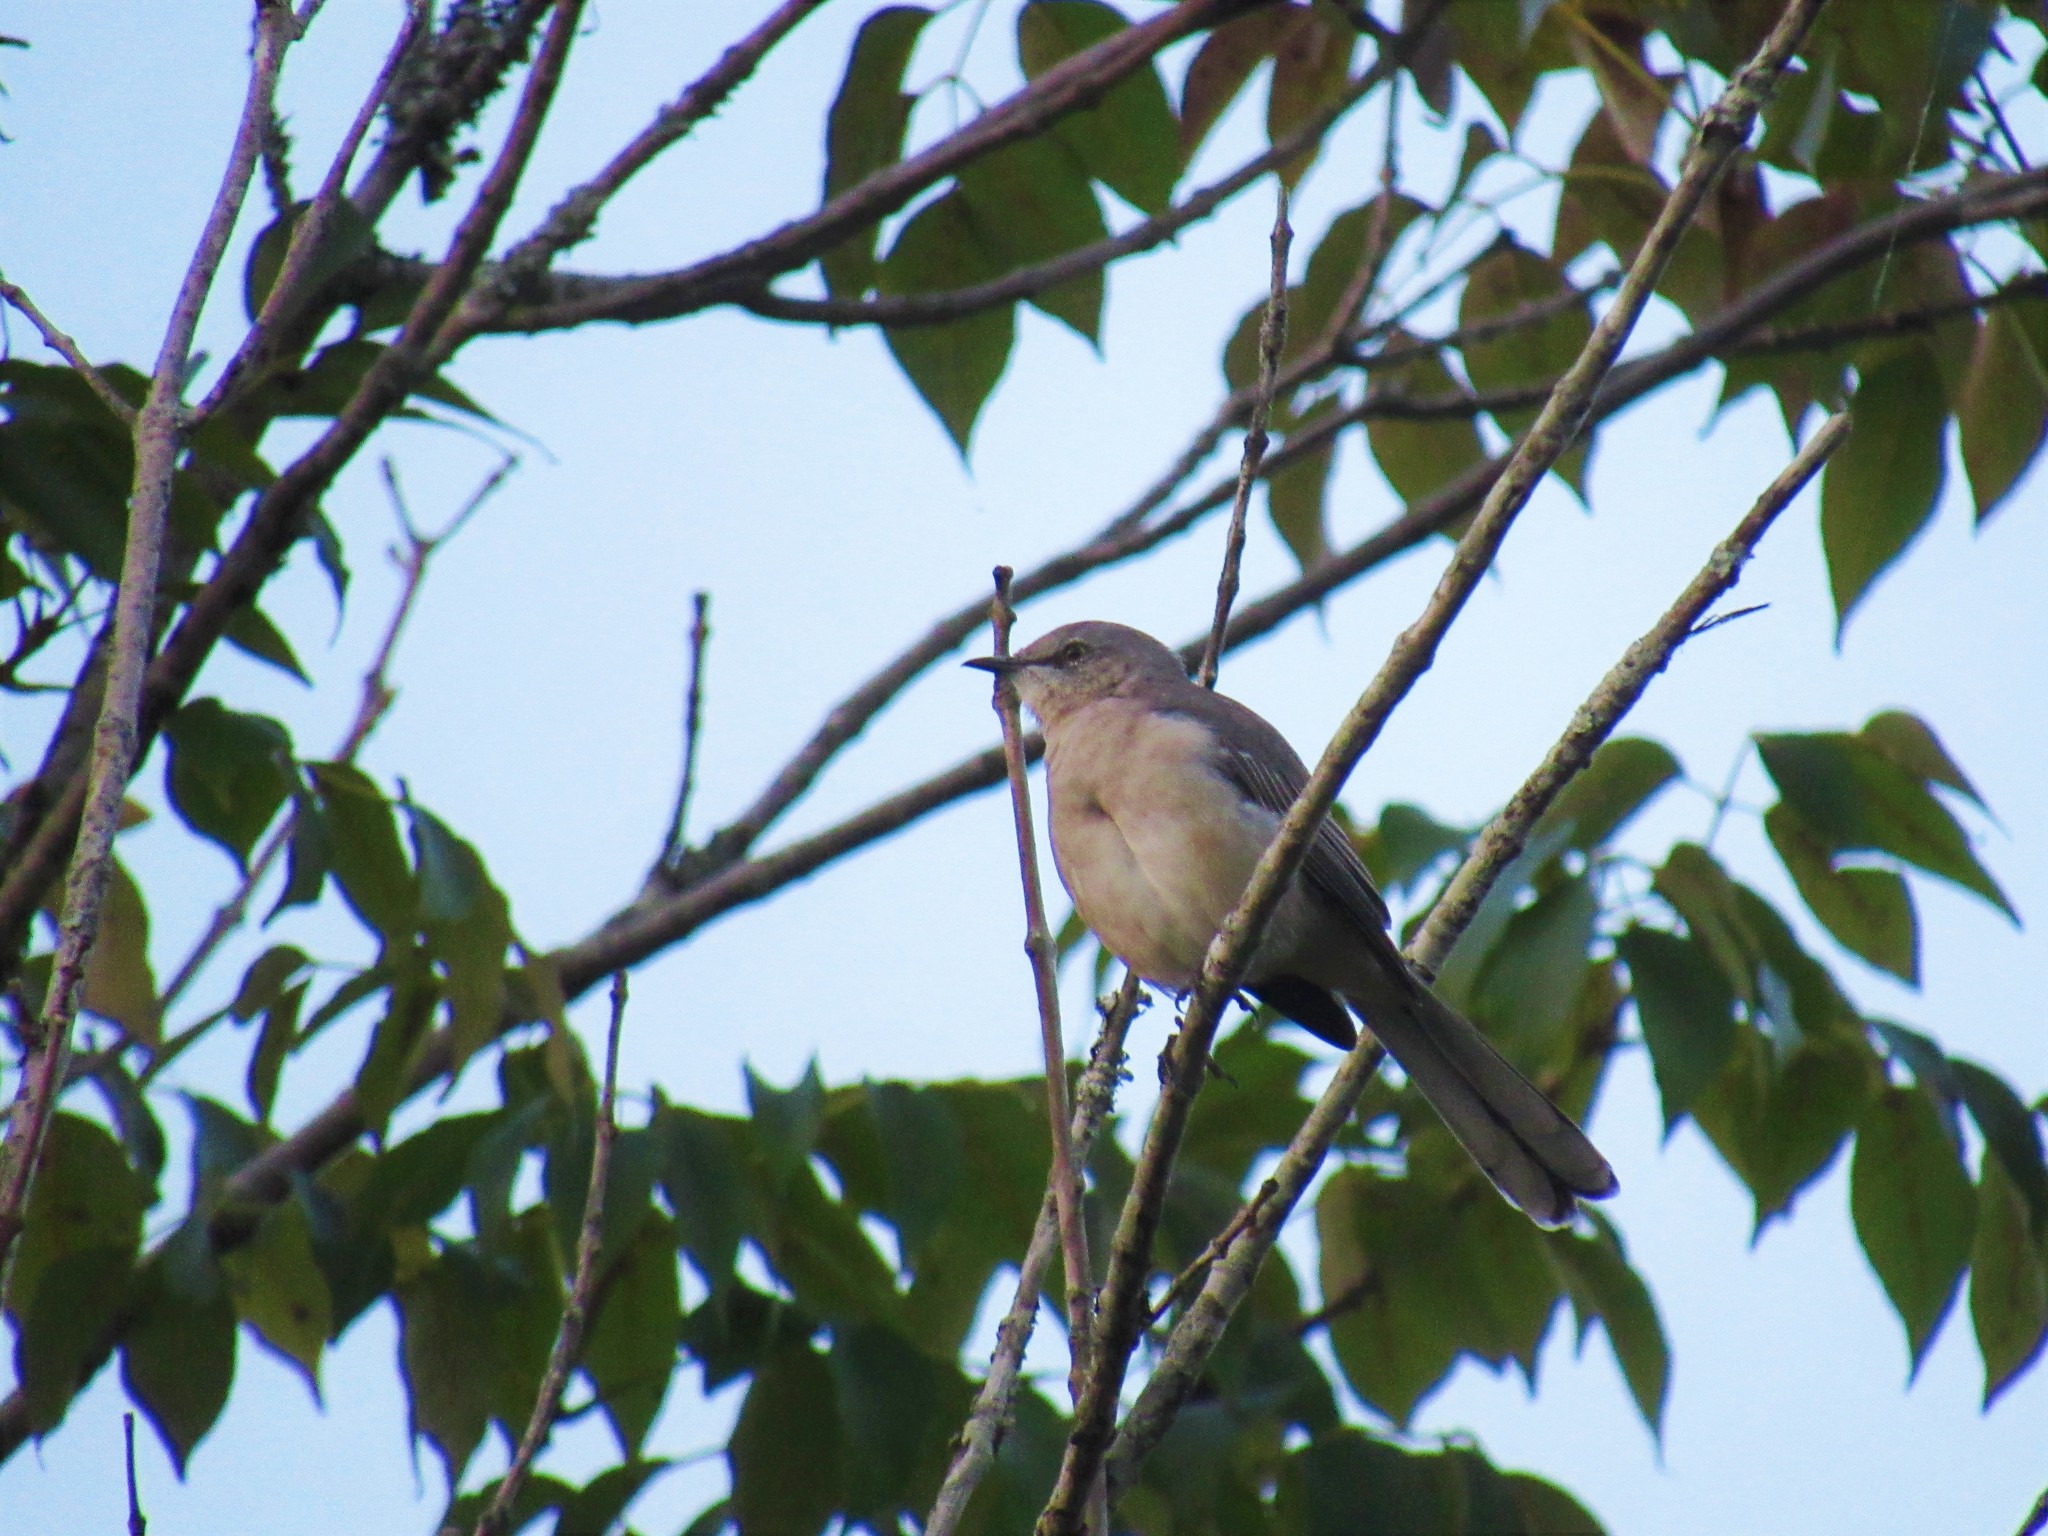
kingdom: Animalia
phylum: Chordata
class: Aves
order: Passeriformes
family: Mimidae
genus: Mimus
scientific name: Mimus polyglottos
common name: Northern mockingbird
